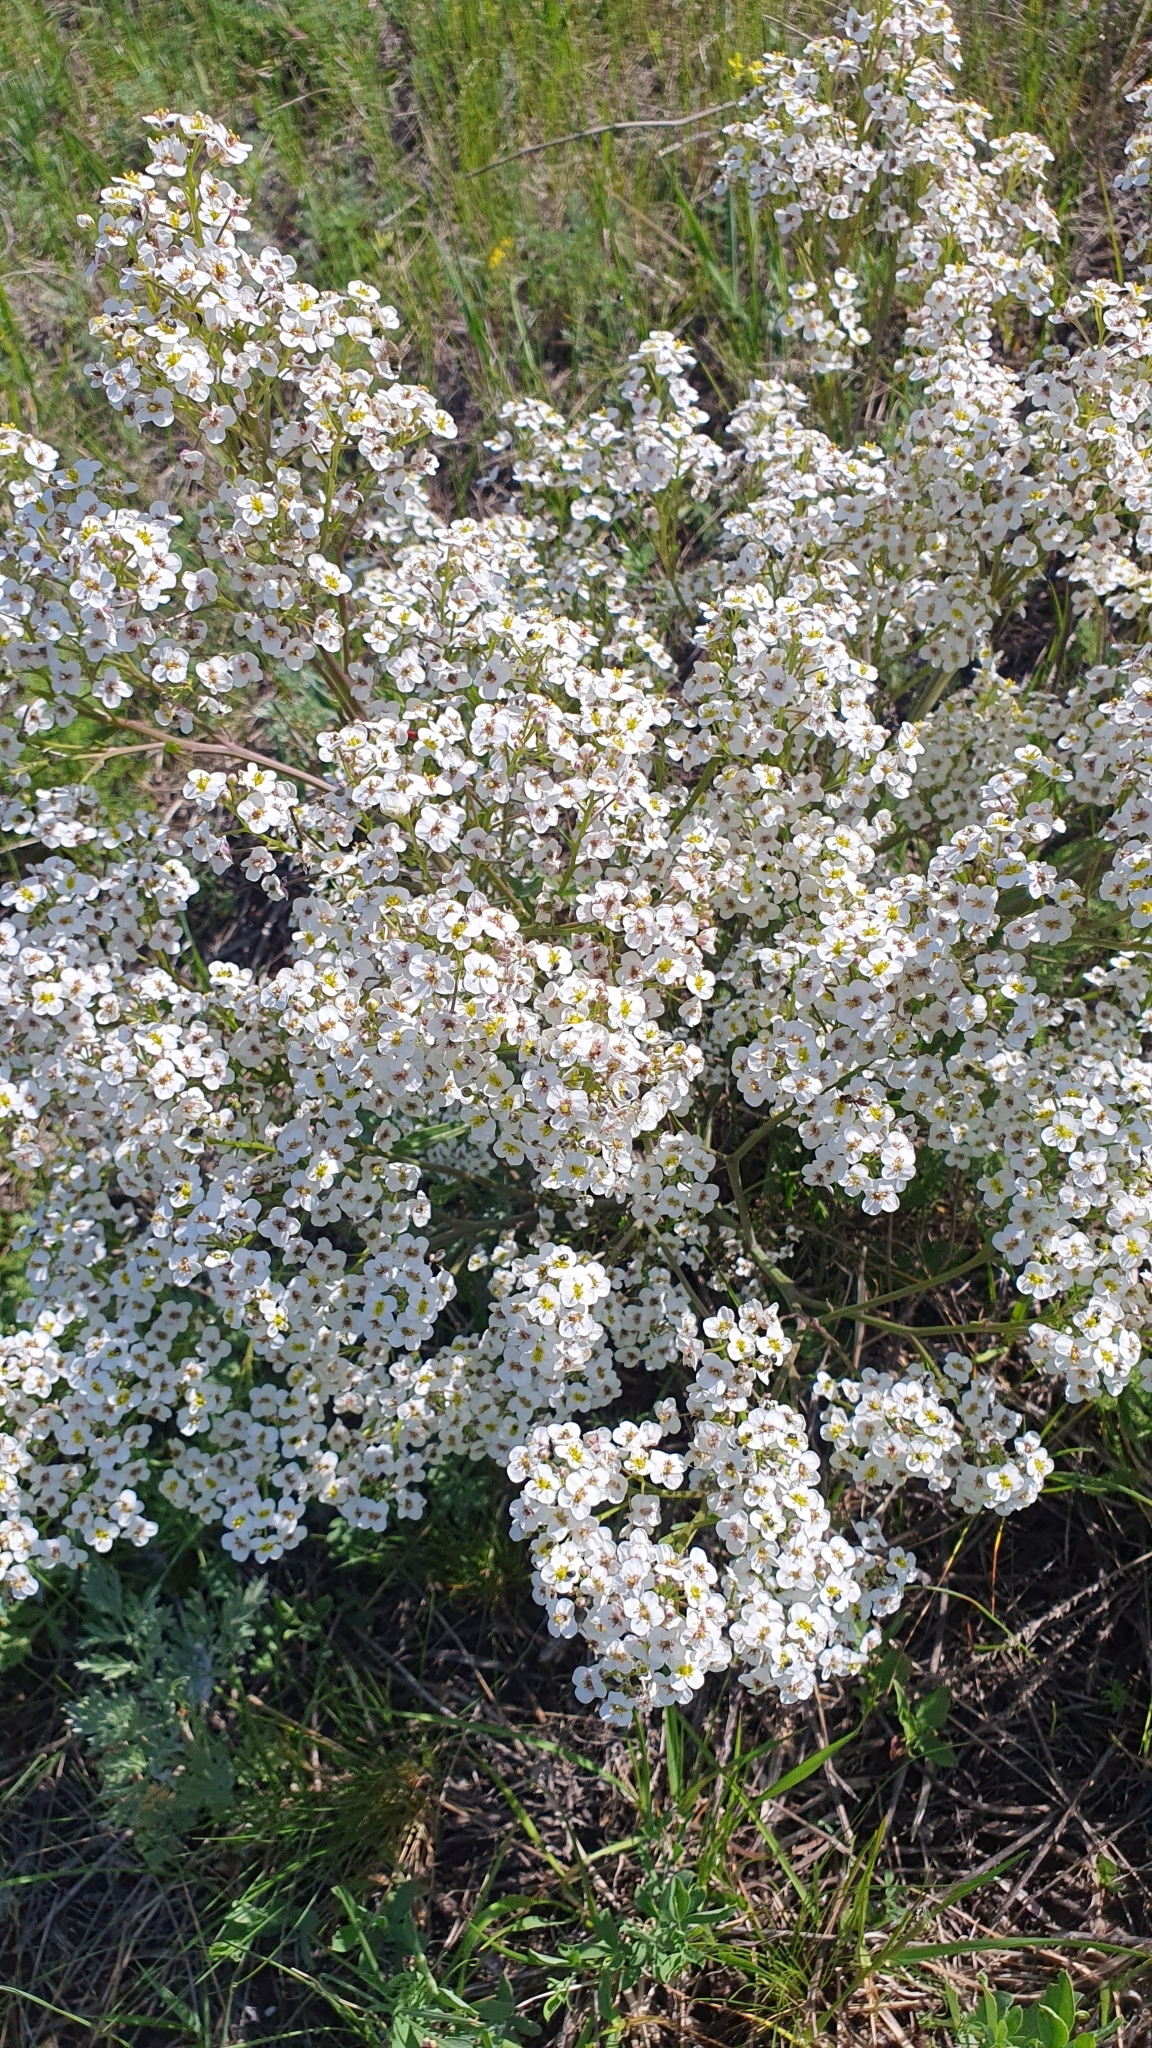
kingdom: Plantae
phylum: Tracheophyta
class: Magnoliopsida
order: Brassicales
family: Brassicaceae
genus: Crambe
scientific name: Crambe tataria
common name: Tartarian breadplant
